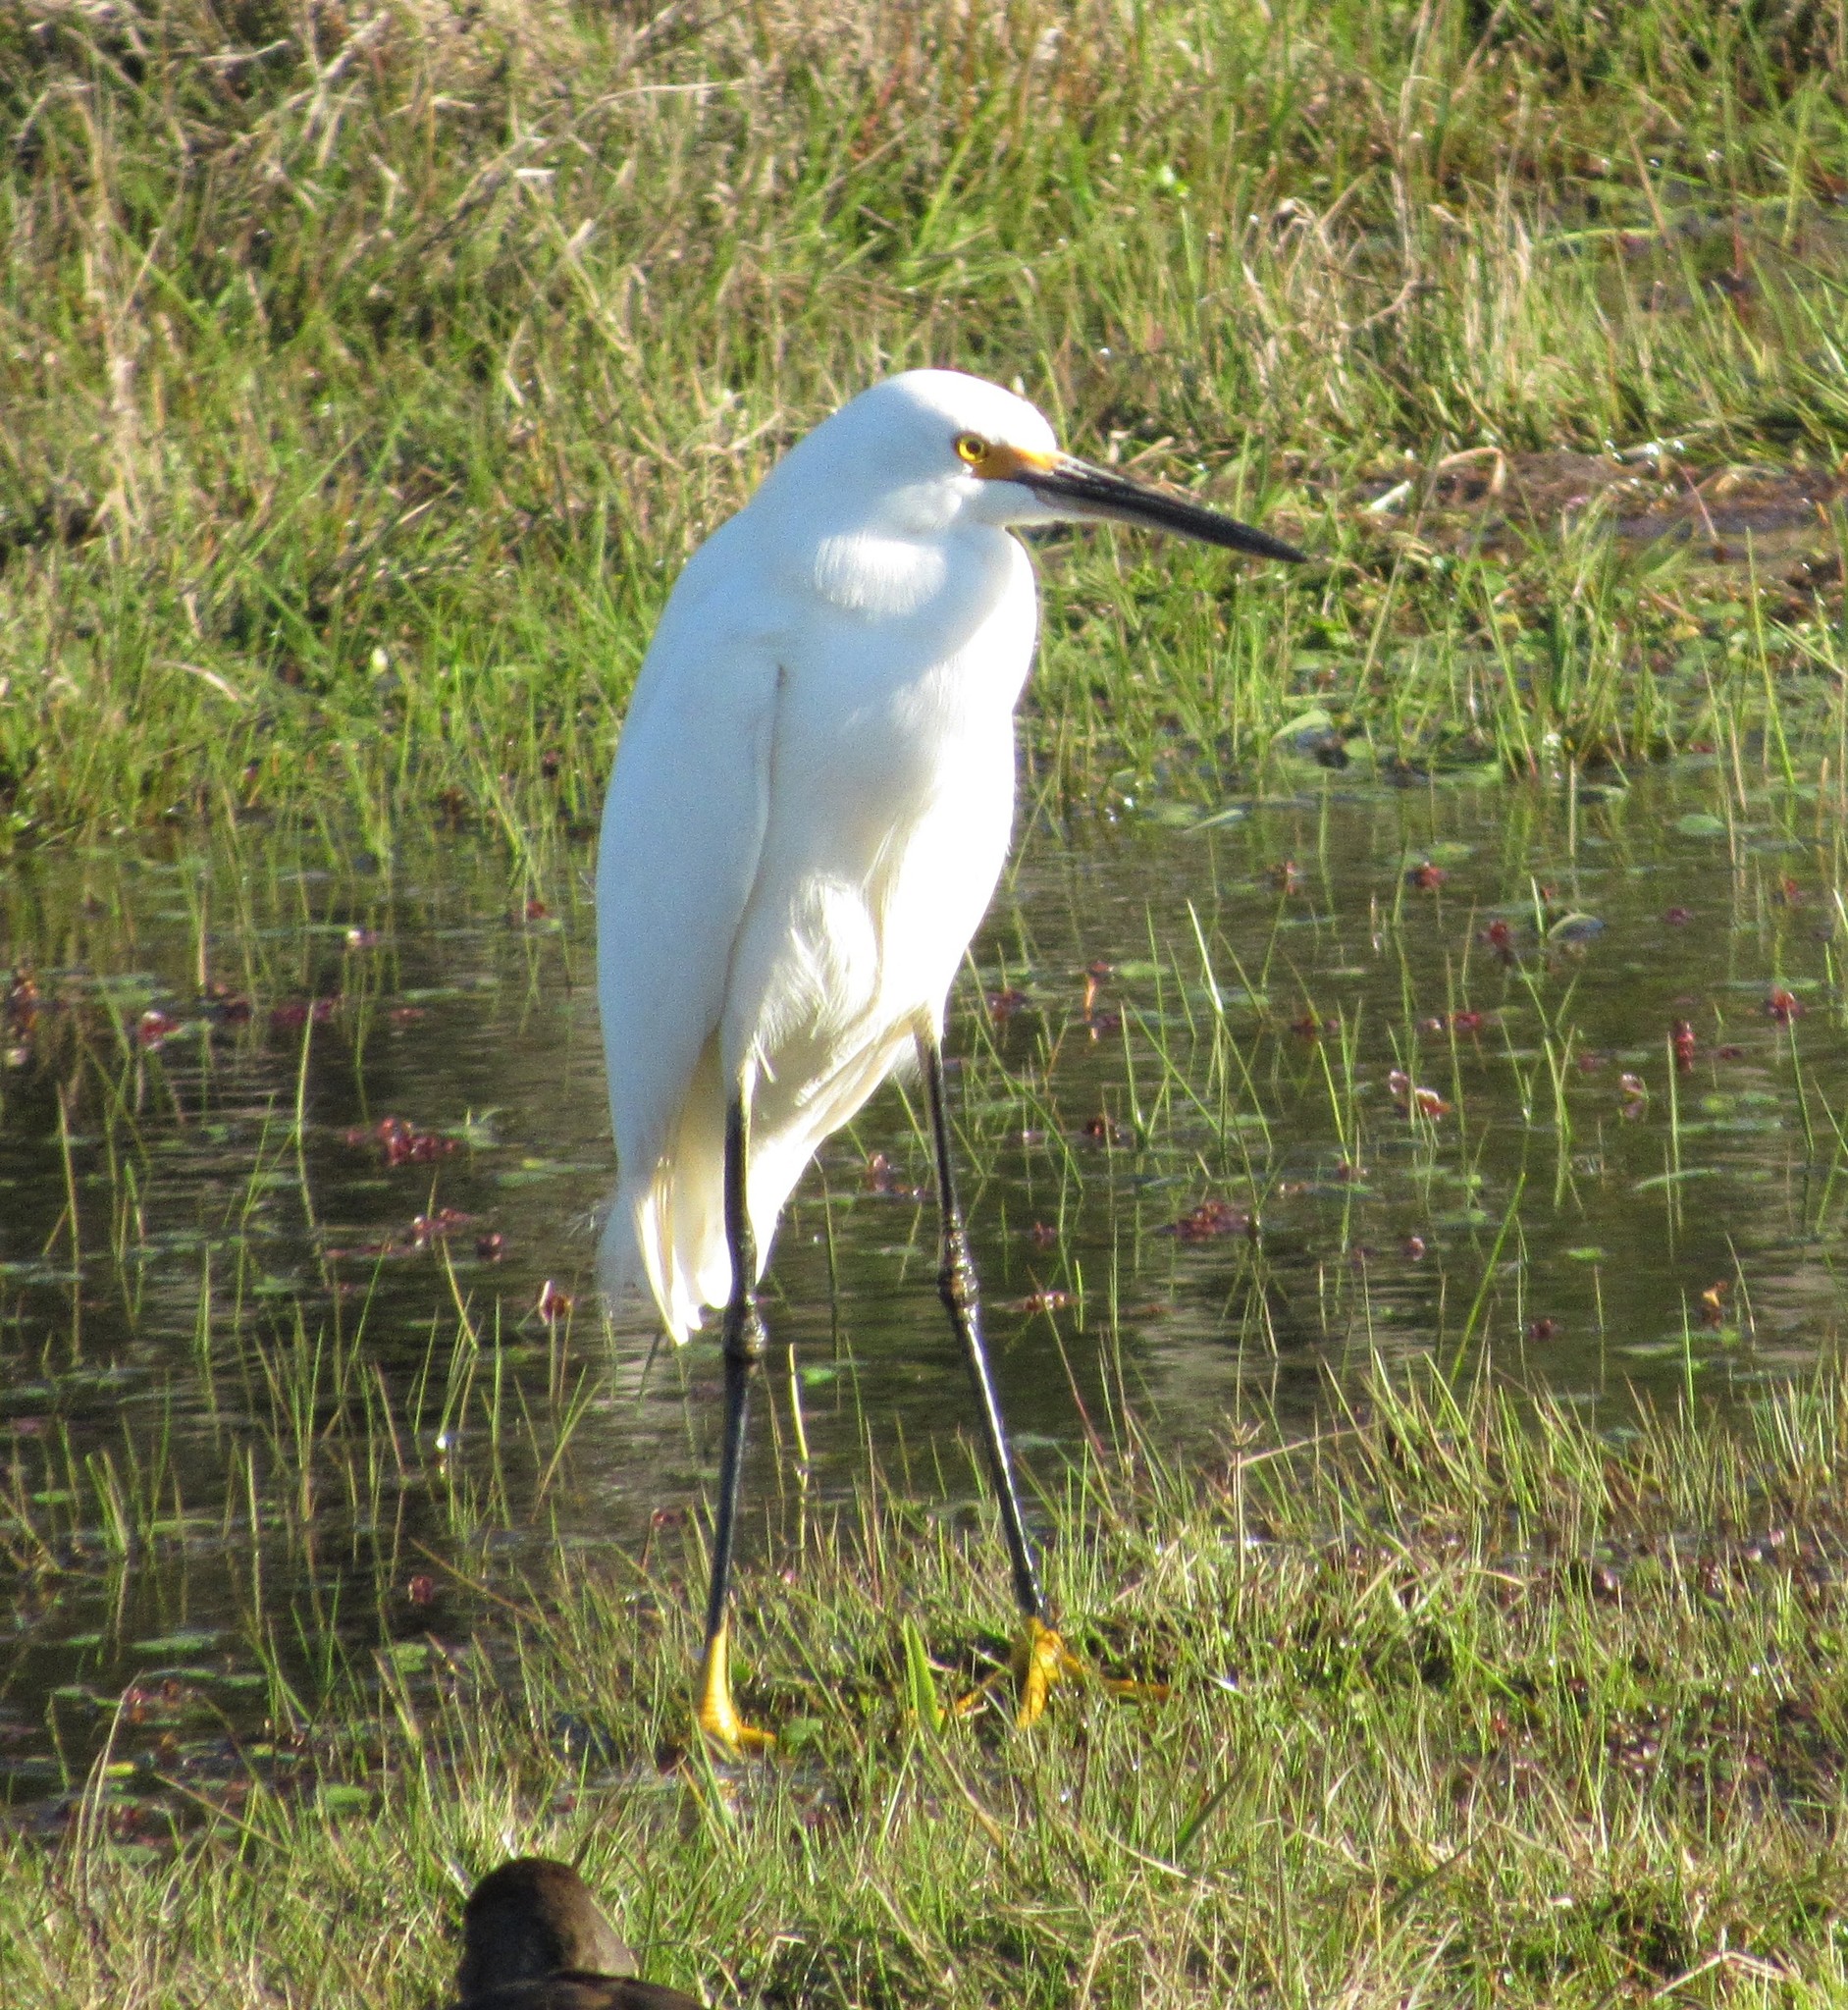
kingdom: Animalia
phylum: Chordata
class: Aves
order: Pelecaniformes
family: Ardeidae
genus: Egretta
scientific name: Egretta thula
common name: Snowy egret
